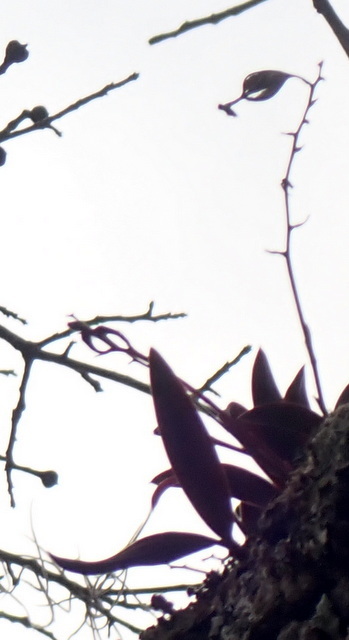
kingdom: Plantae
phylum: Tracheophyta
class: Liliopsida
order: Asparagales
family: Orchidaceae
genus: Epidendrum
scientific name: Epidendrum conopseum
